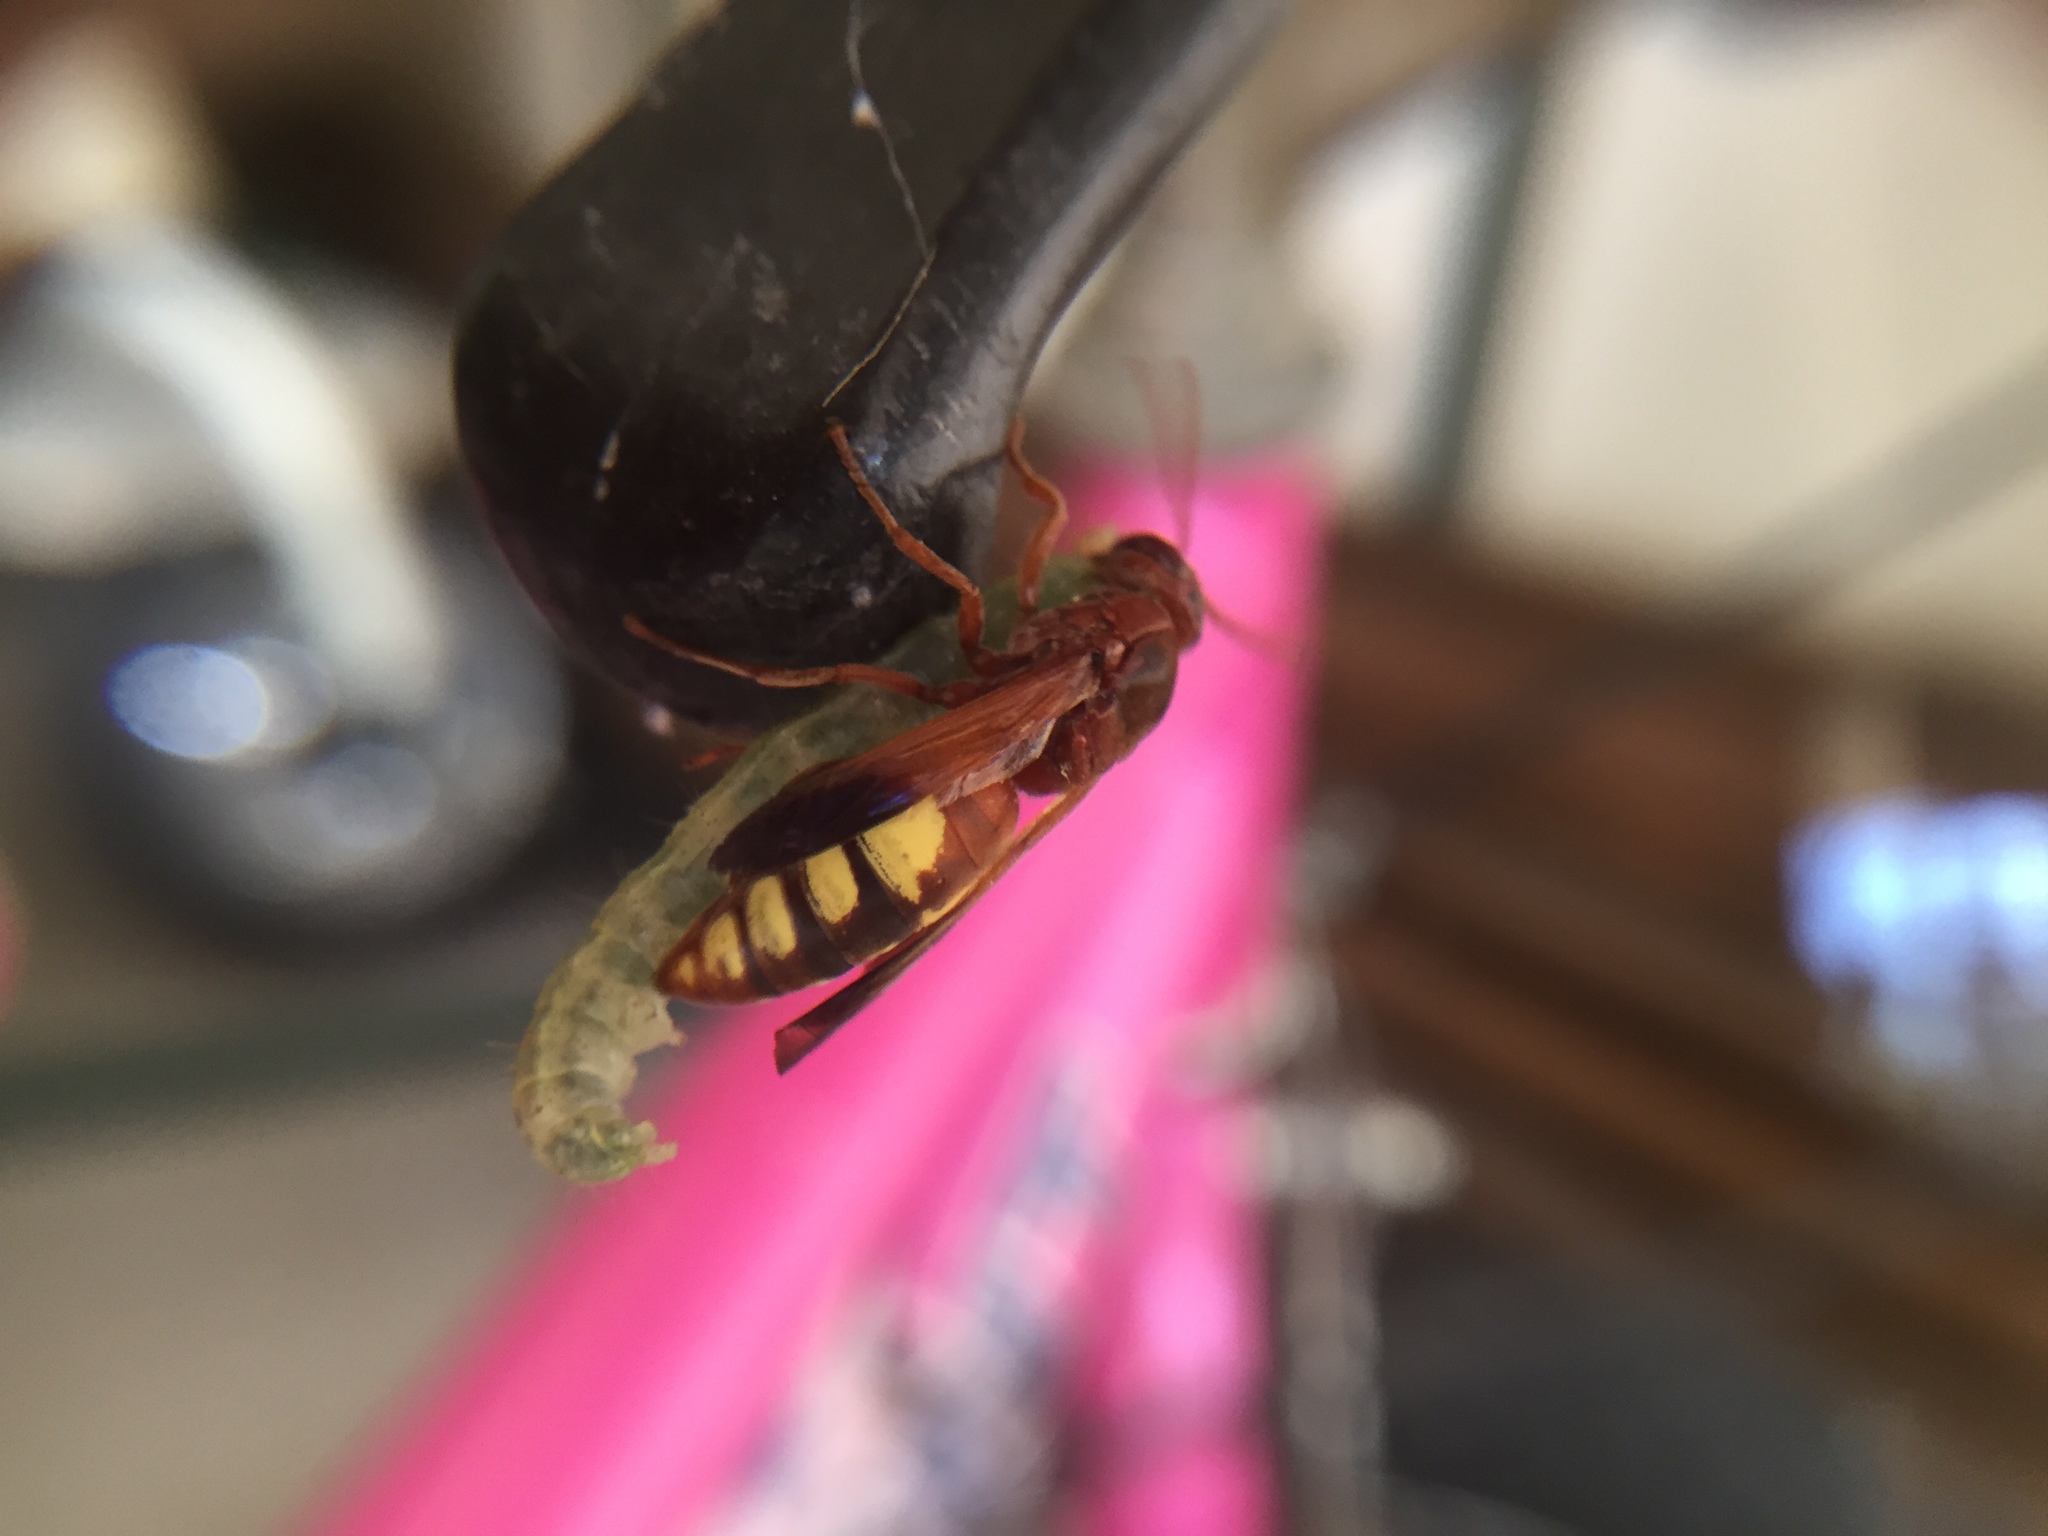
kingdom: Animalia
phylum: Arthropoda
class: Insecta
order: Hymenoptera
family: Eumenidae
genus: Rhynchium
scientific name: Rhynchium oculatum
